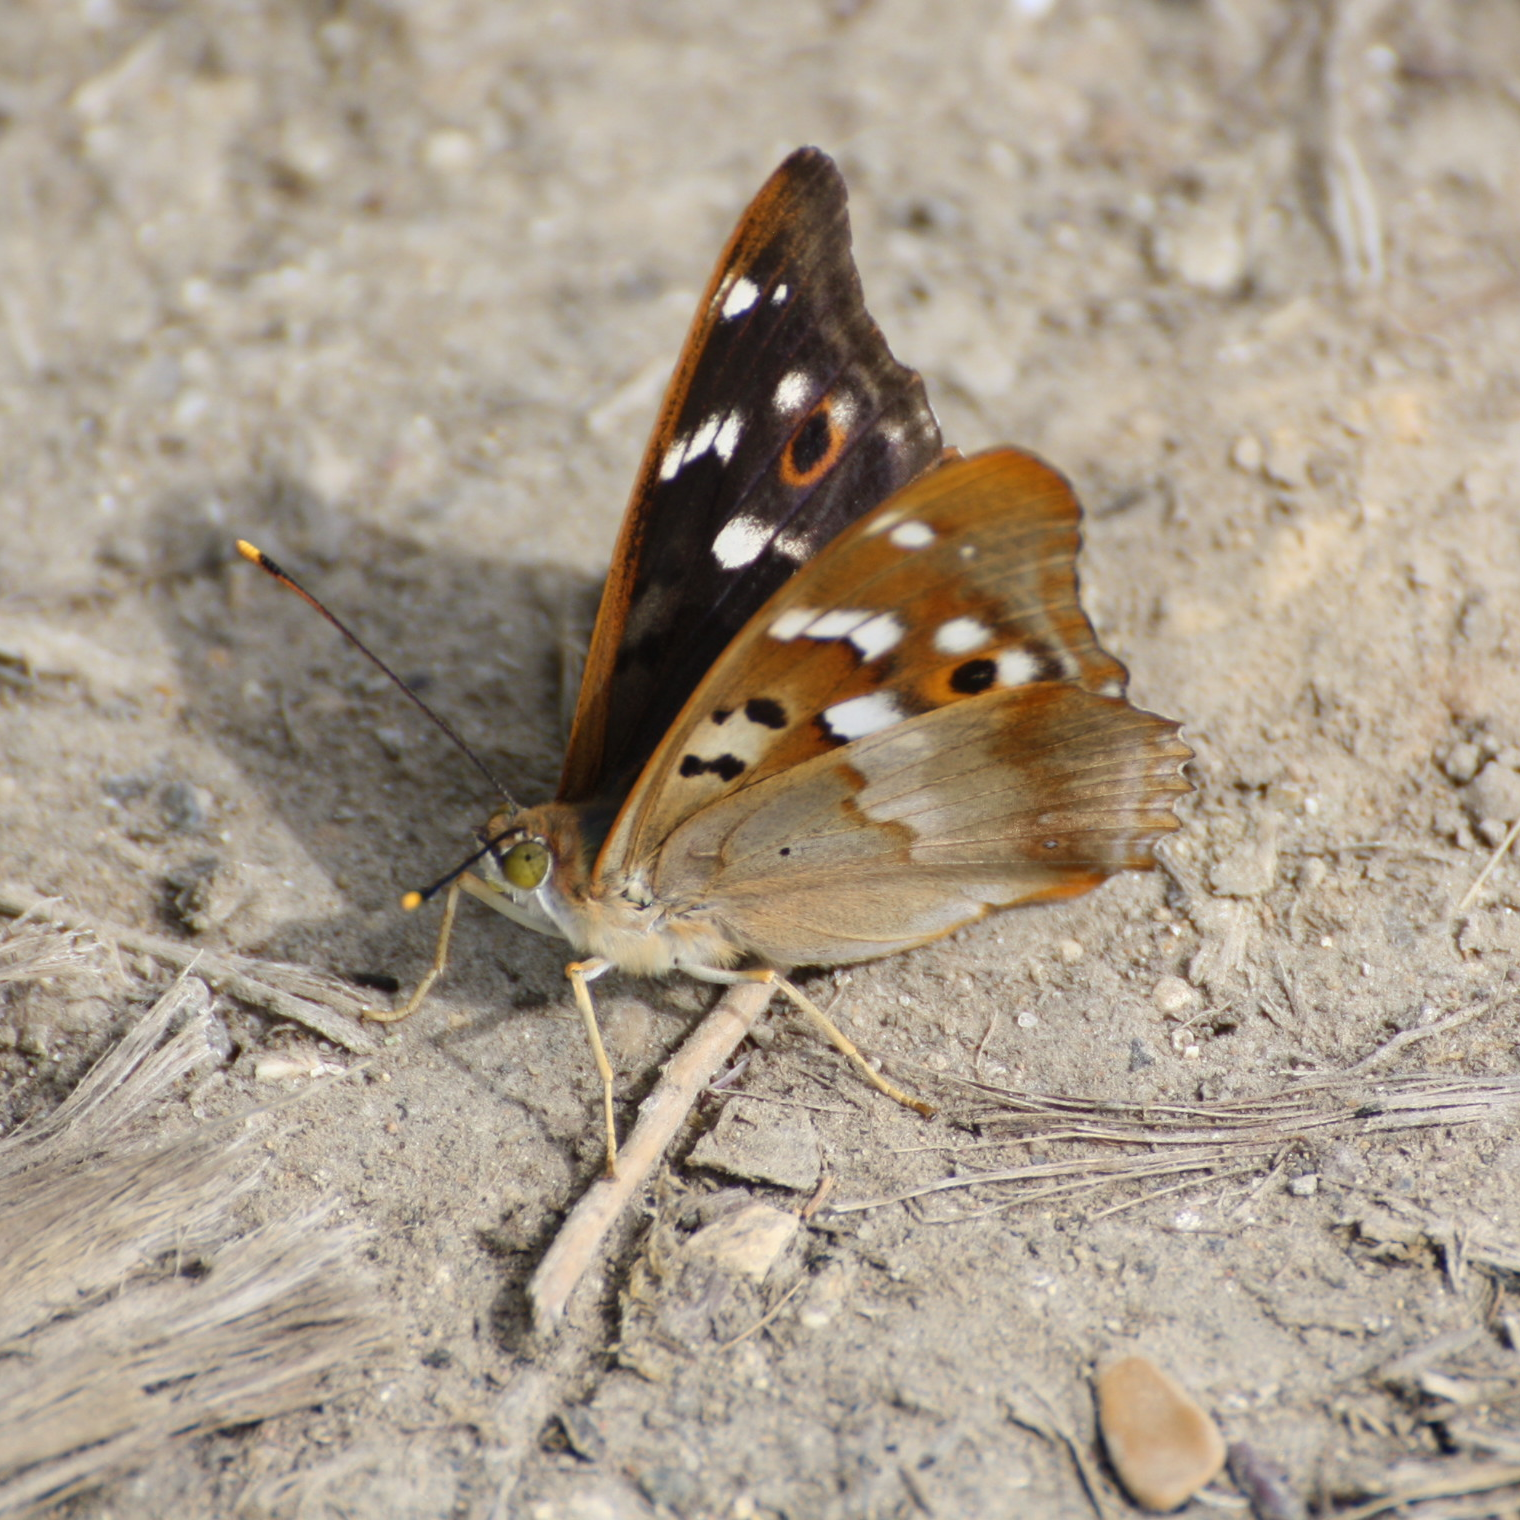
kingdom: Animalia
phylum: Arthropoda
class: Insecta
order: Lepidoptera
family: Nymphalidae
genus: Apatura
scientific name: Apatura ilia
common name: Lesser purple emperor
